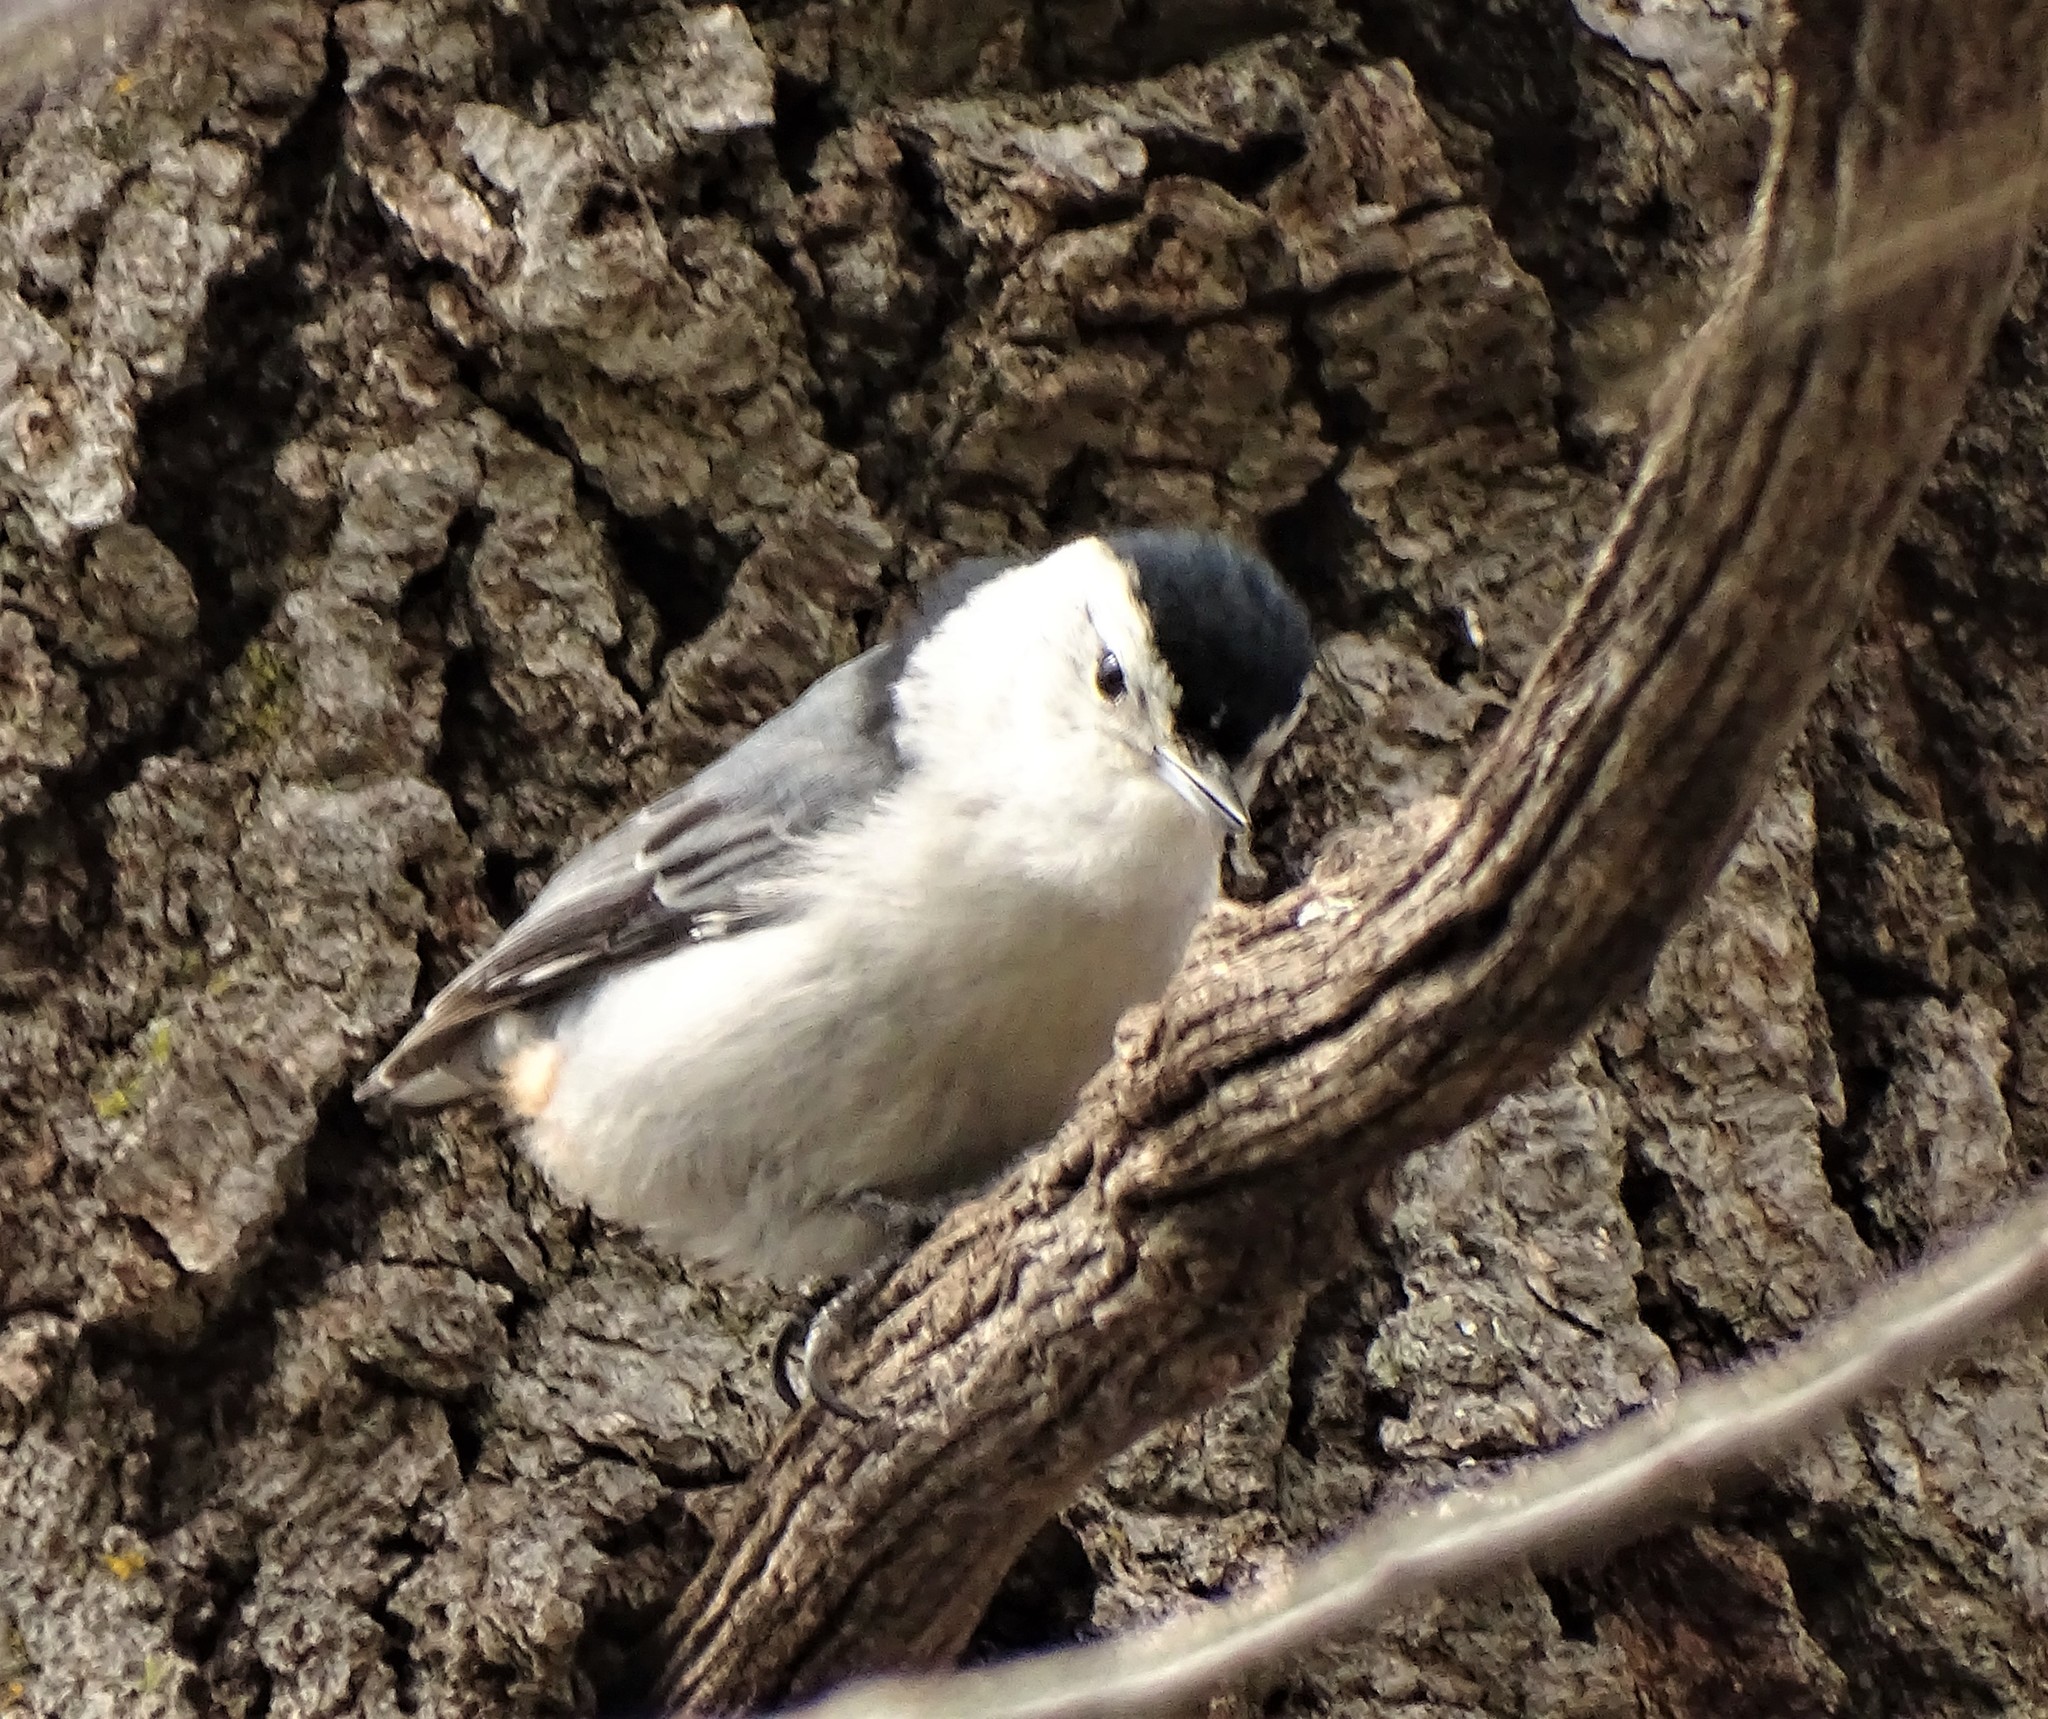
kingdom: Animalia
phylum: Chordata
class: Aves
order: Passeriformes
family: Sittidae
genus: Sitta
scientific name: Sitta carolinensis
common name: White-breasted nuthatch
